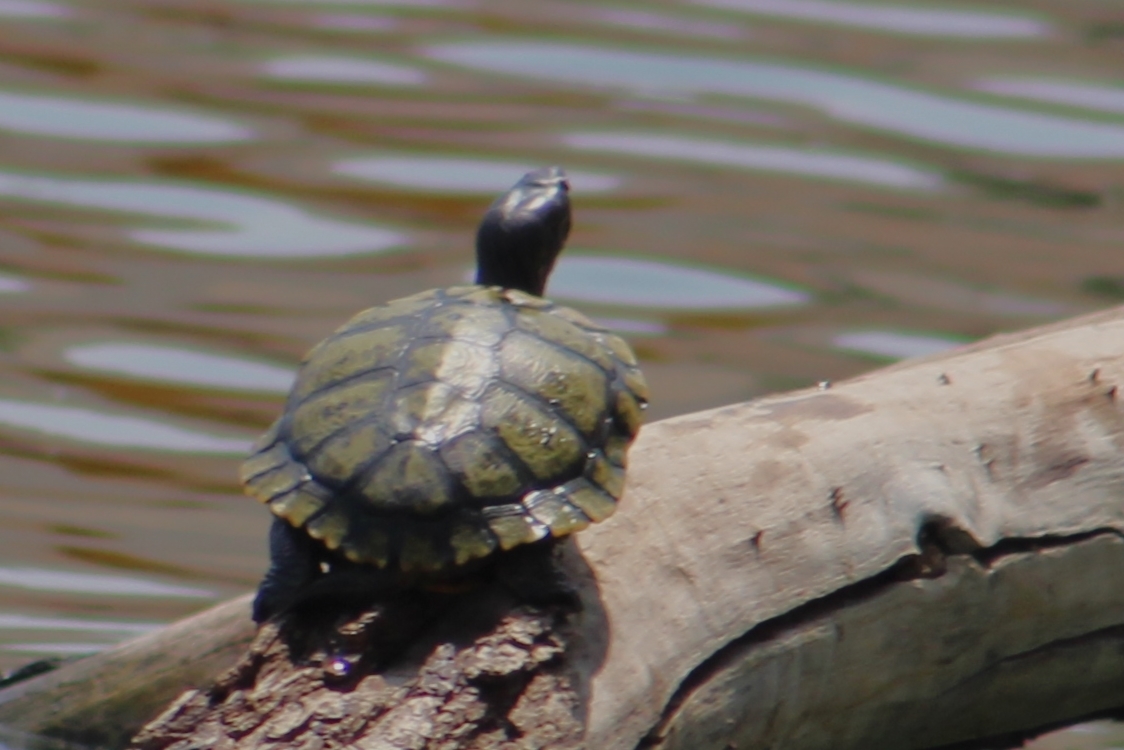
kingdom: Animalia
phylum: Chordata
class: Testudines
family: Emydidae
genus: Trachemys
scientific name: Trachemys scripta
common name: Slider
